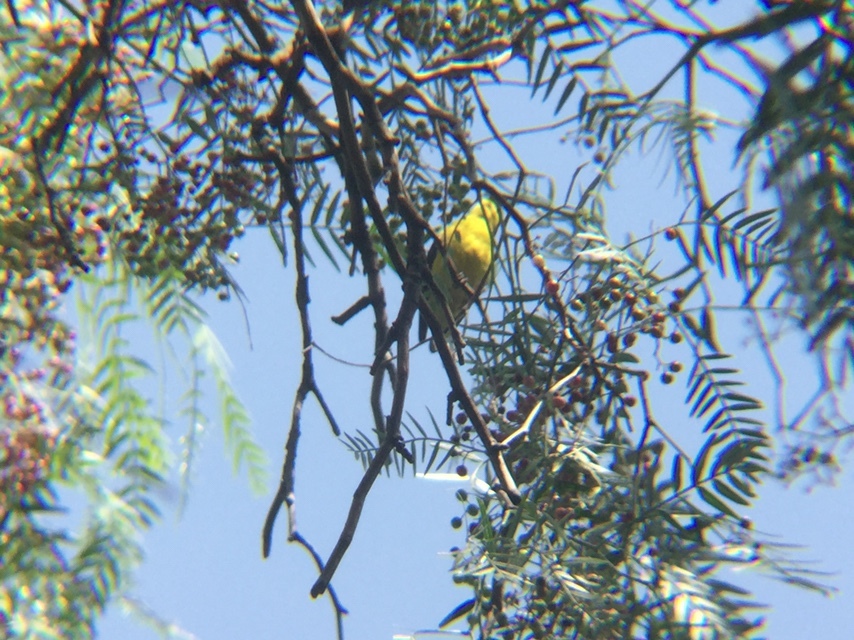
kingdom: Animalia
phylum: Chordata
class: Aves
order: Passeriformes
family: Fringillidae
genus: Spinus
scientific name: Spinus psaltria
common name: Lesser goldfinch
